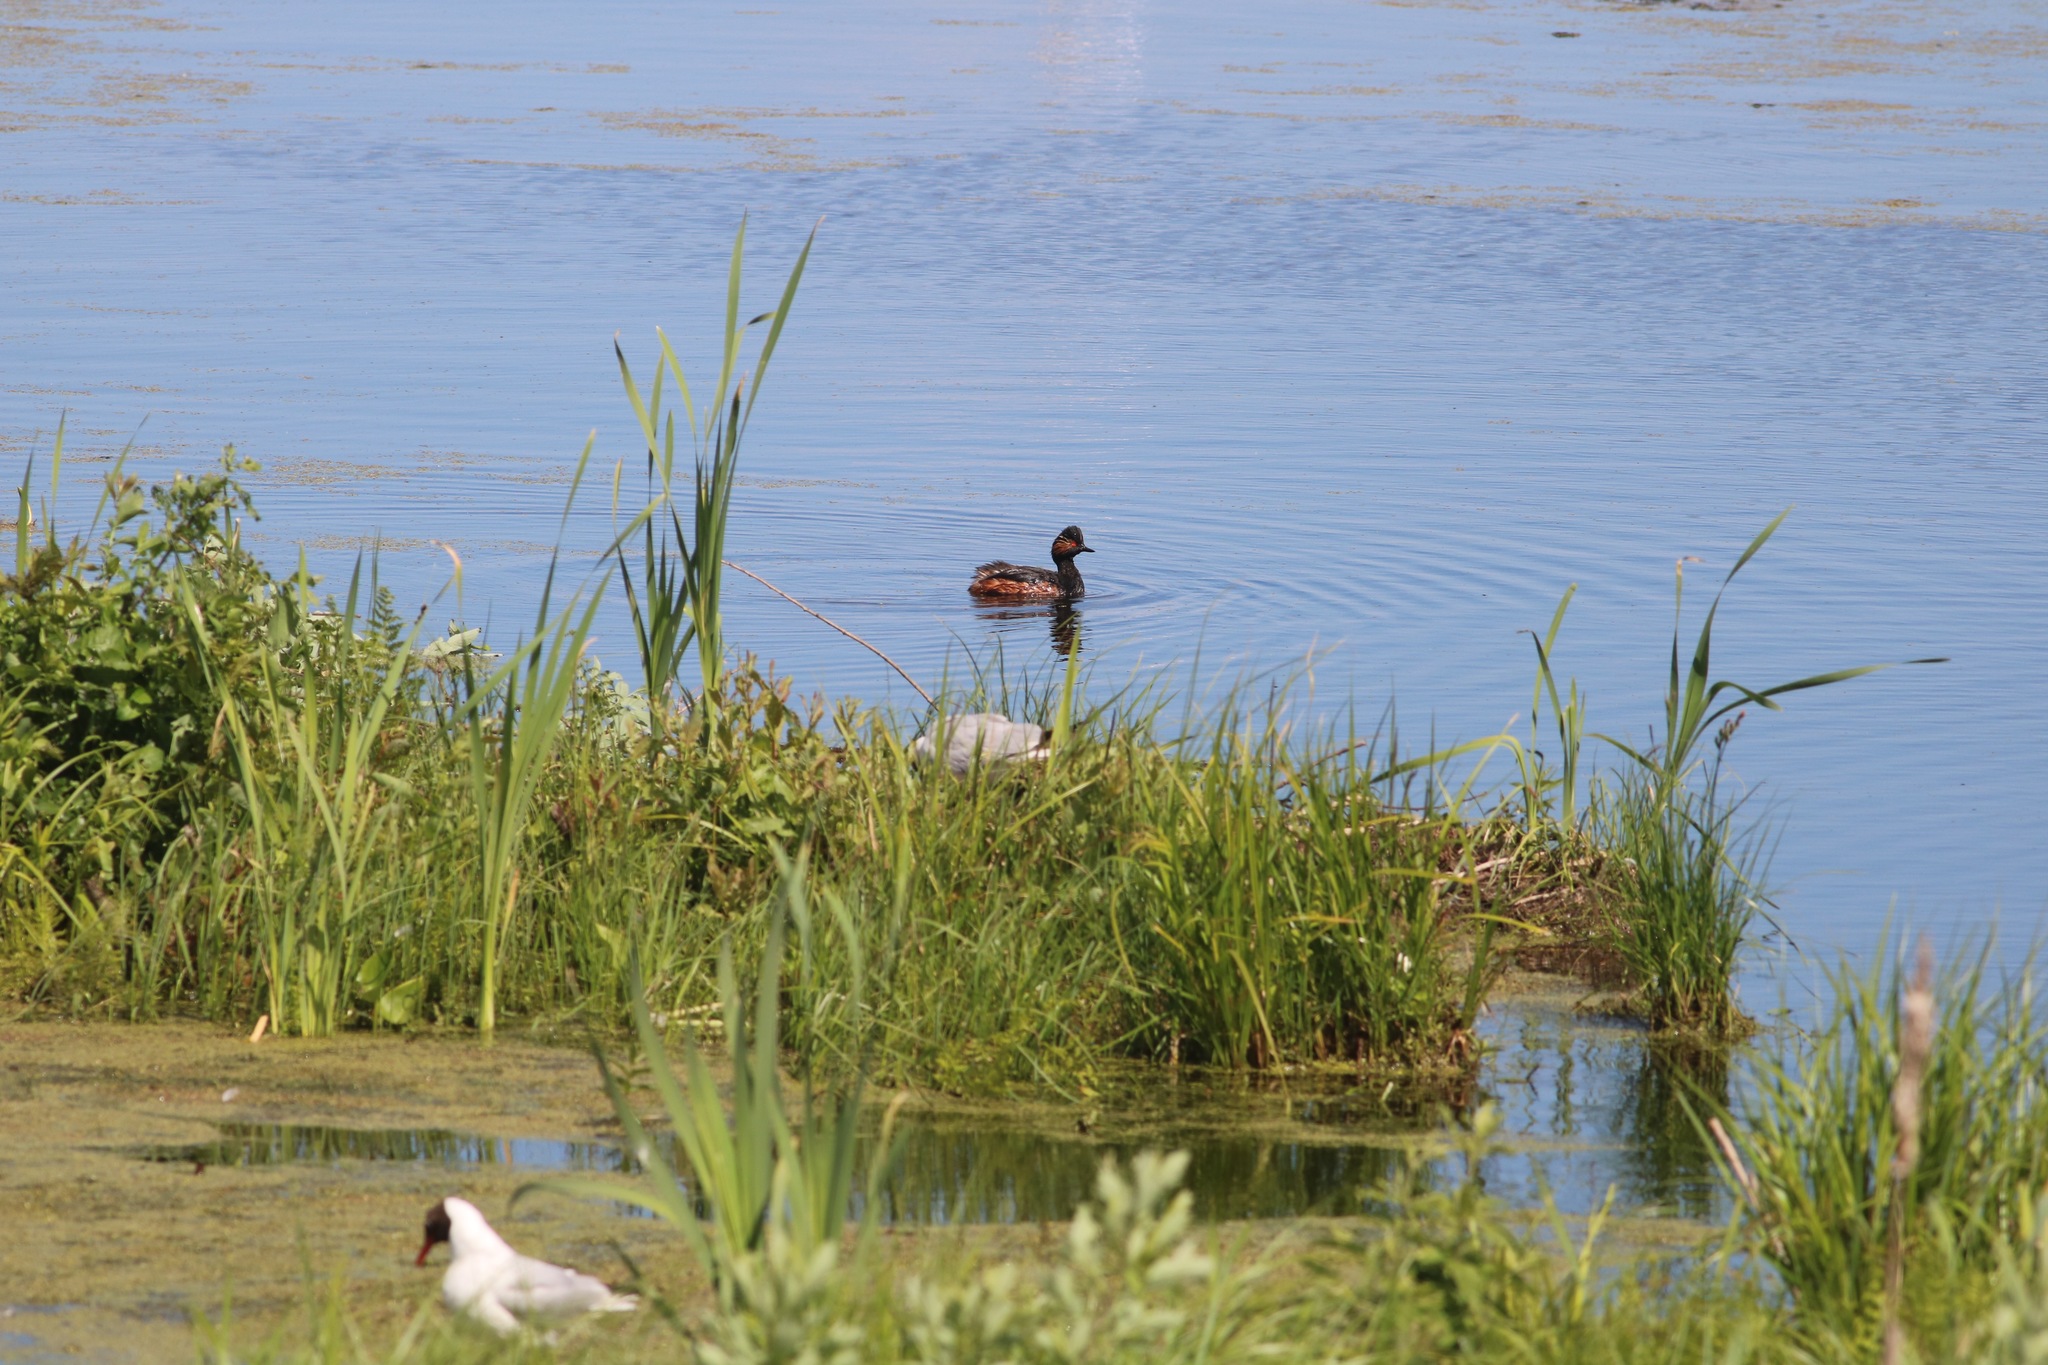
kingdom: Animalia
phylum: Chordata
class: Aves
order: Podicipediformes
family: Podicipedidae
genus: Podiceps
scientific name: Podiceps nigricollis
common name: Black-necked grebe
